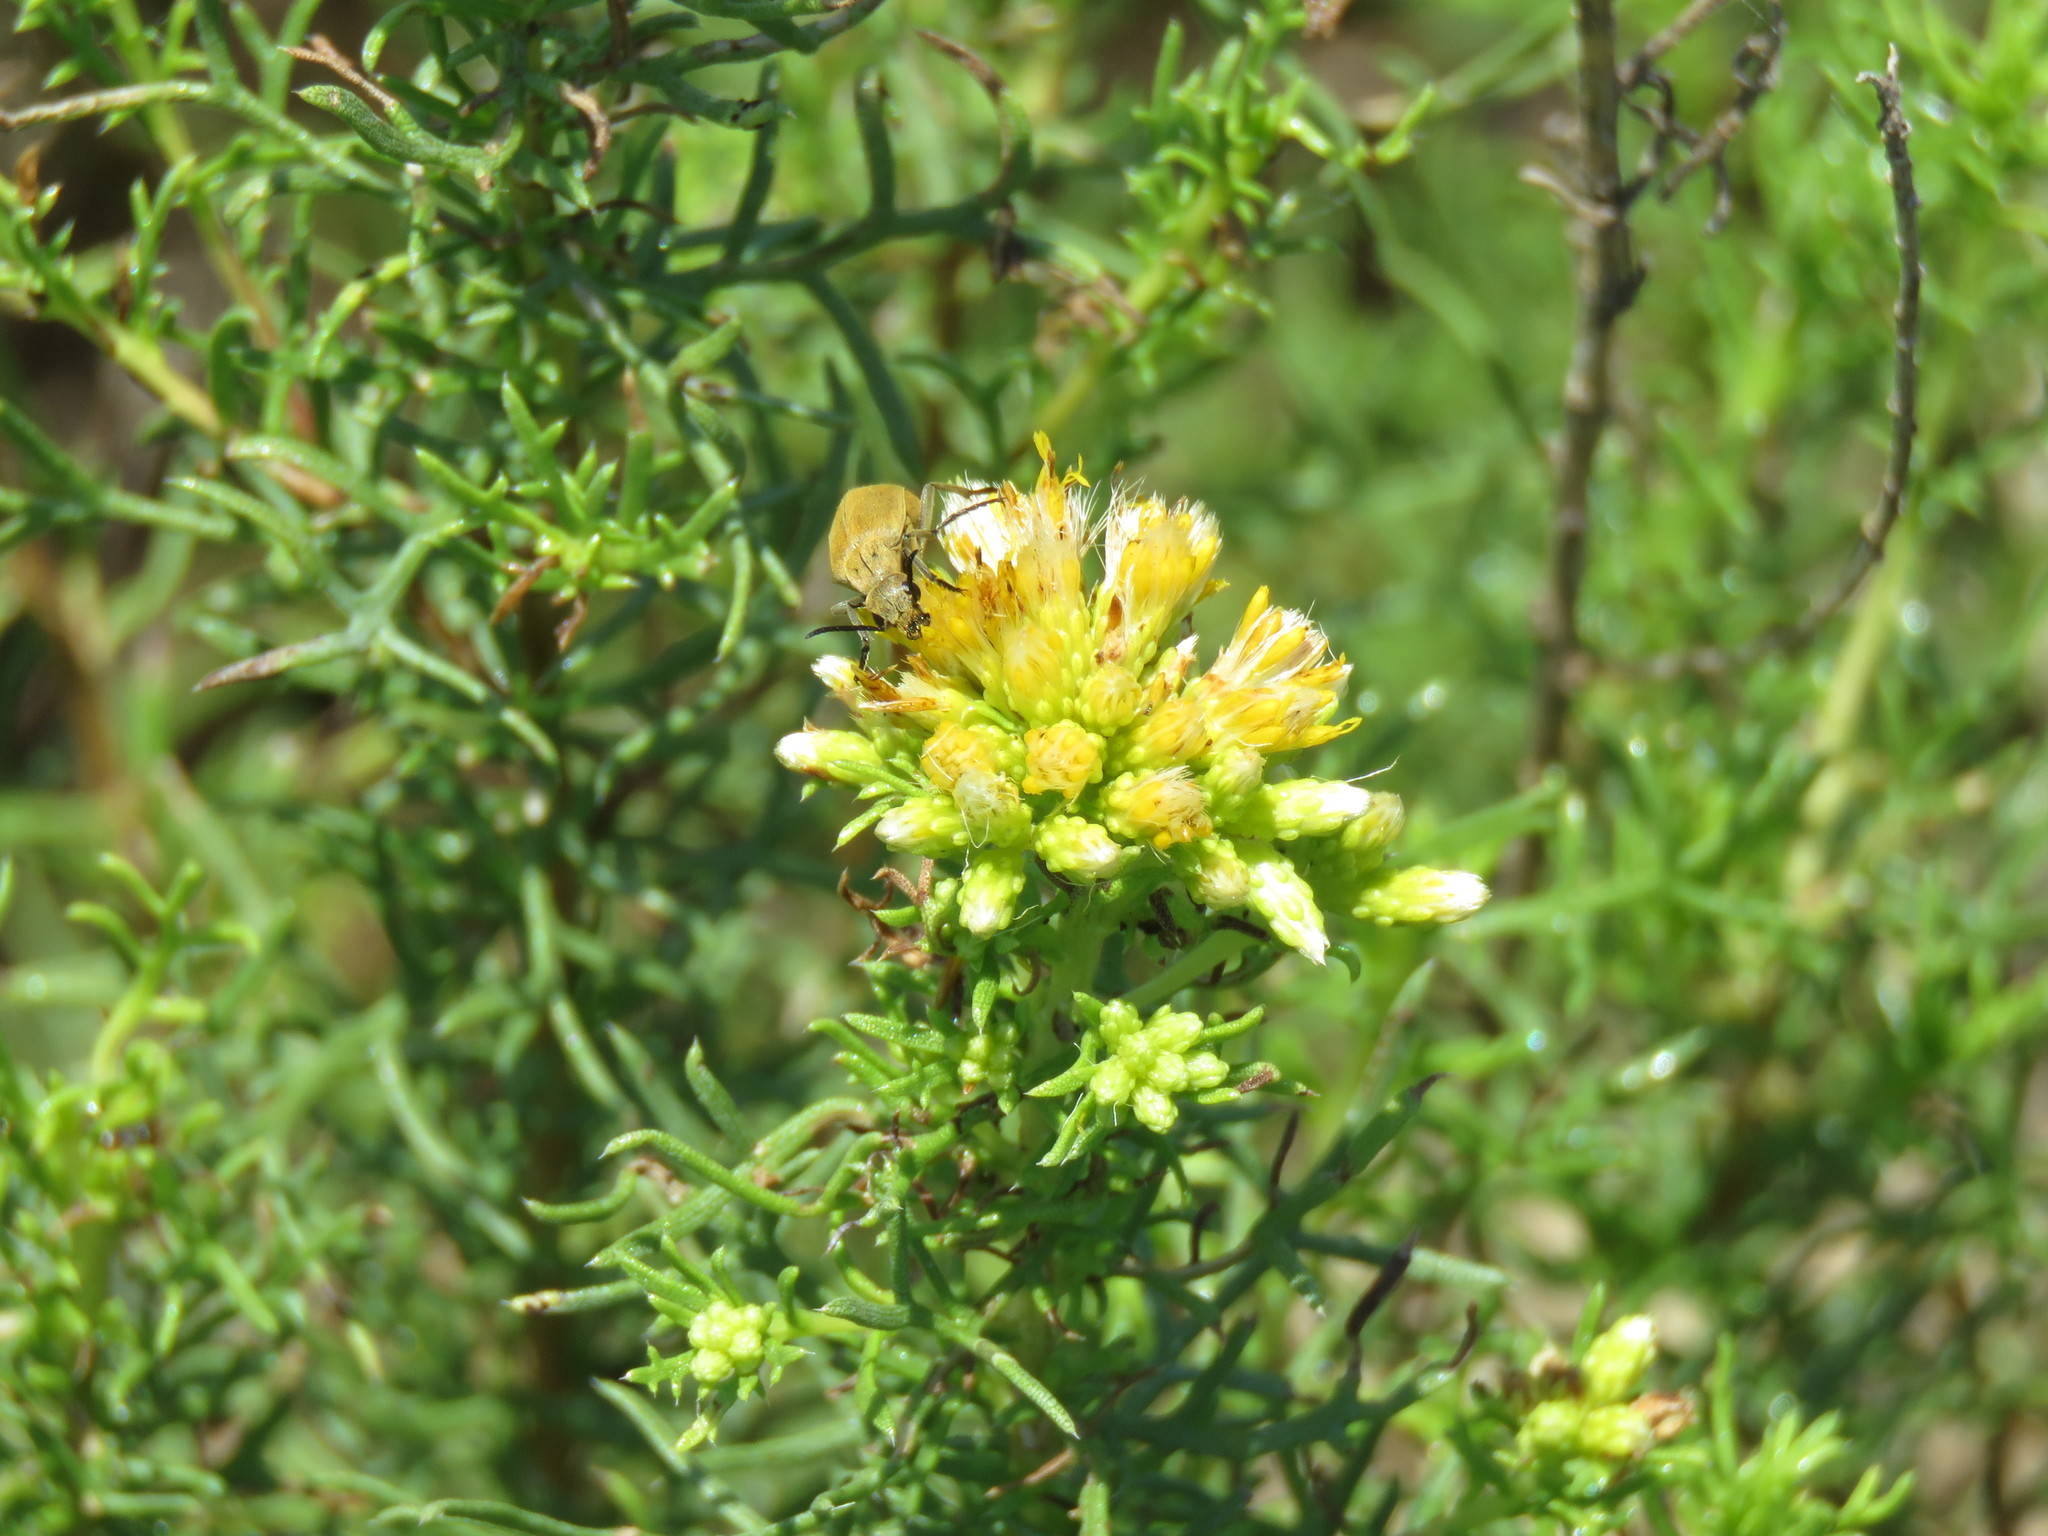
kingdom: Plantae
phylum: Tracheophyta
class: Magnoliopsida
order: Asterales
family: Asteraceae
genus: Isocoma
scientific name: Isocoma coronopifolia
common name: Common jimmyweed
